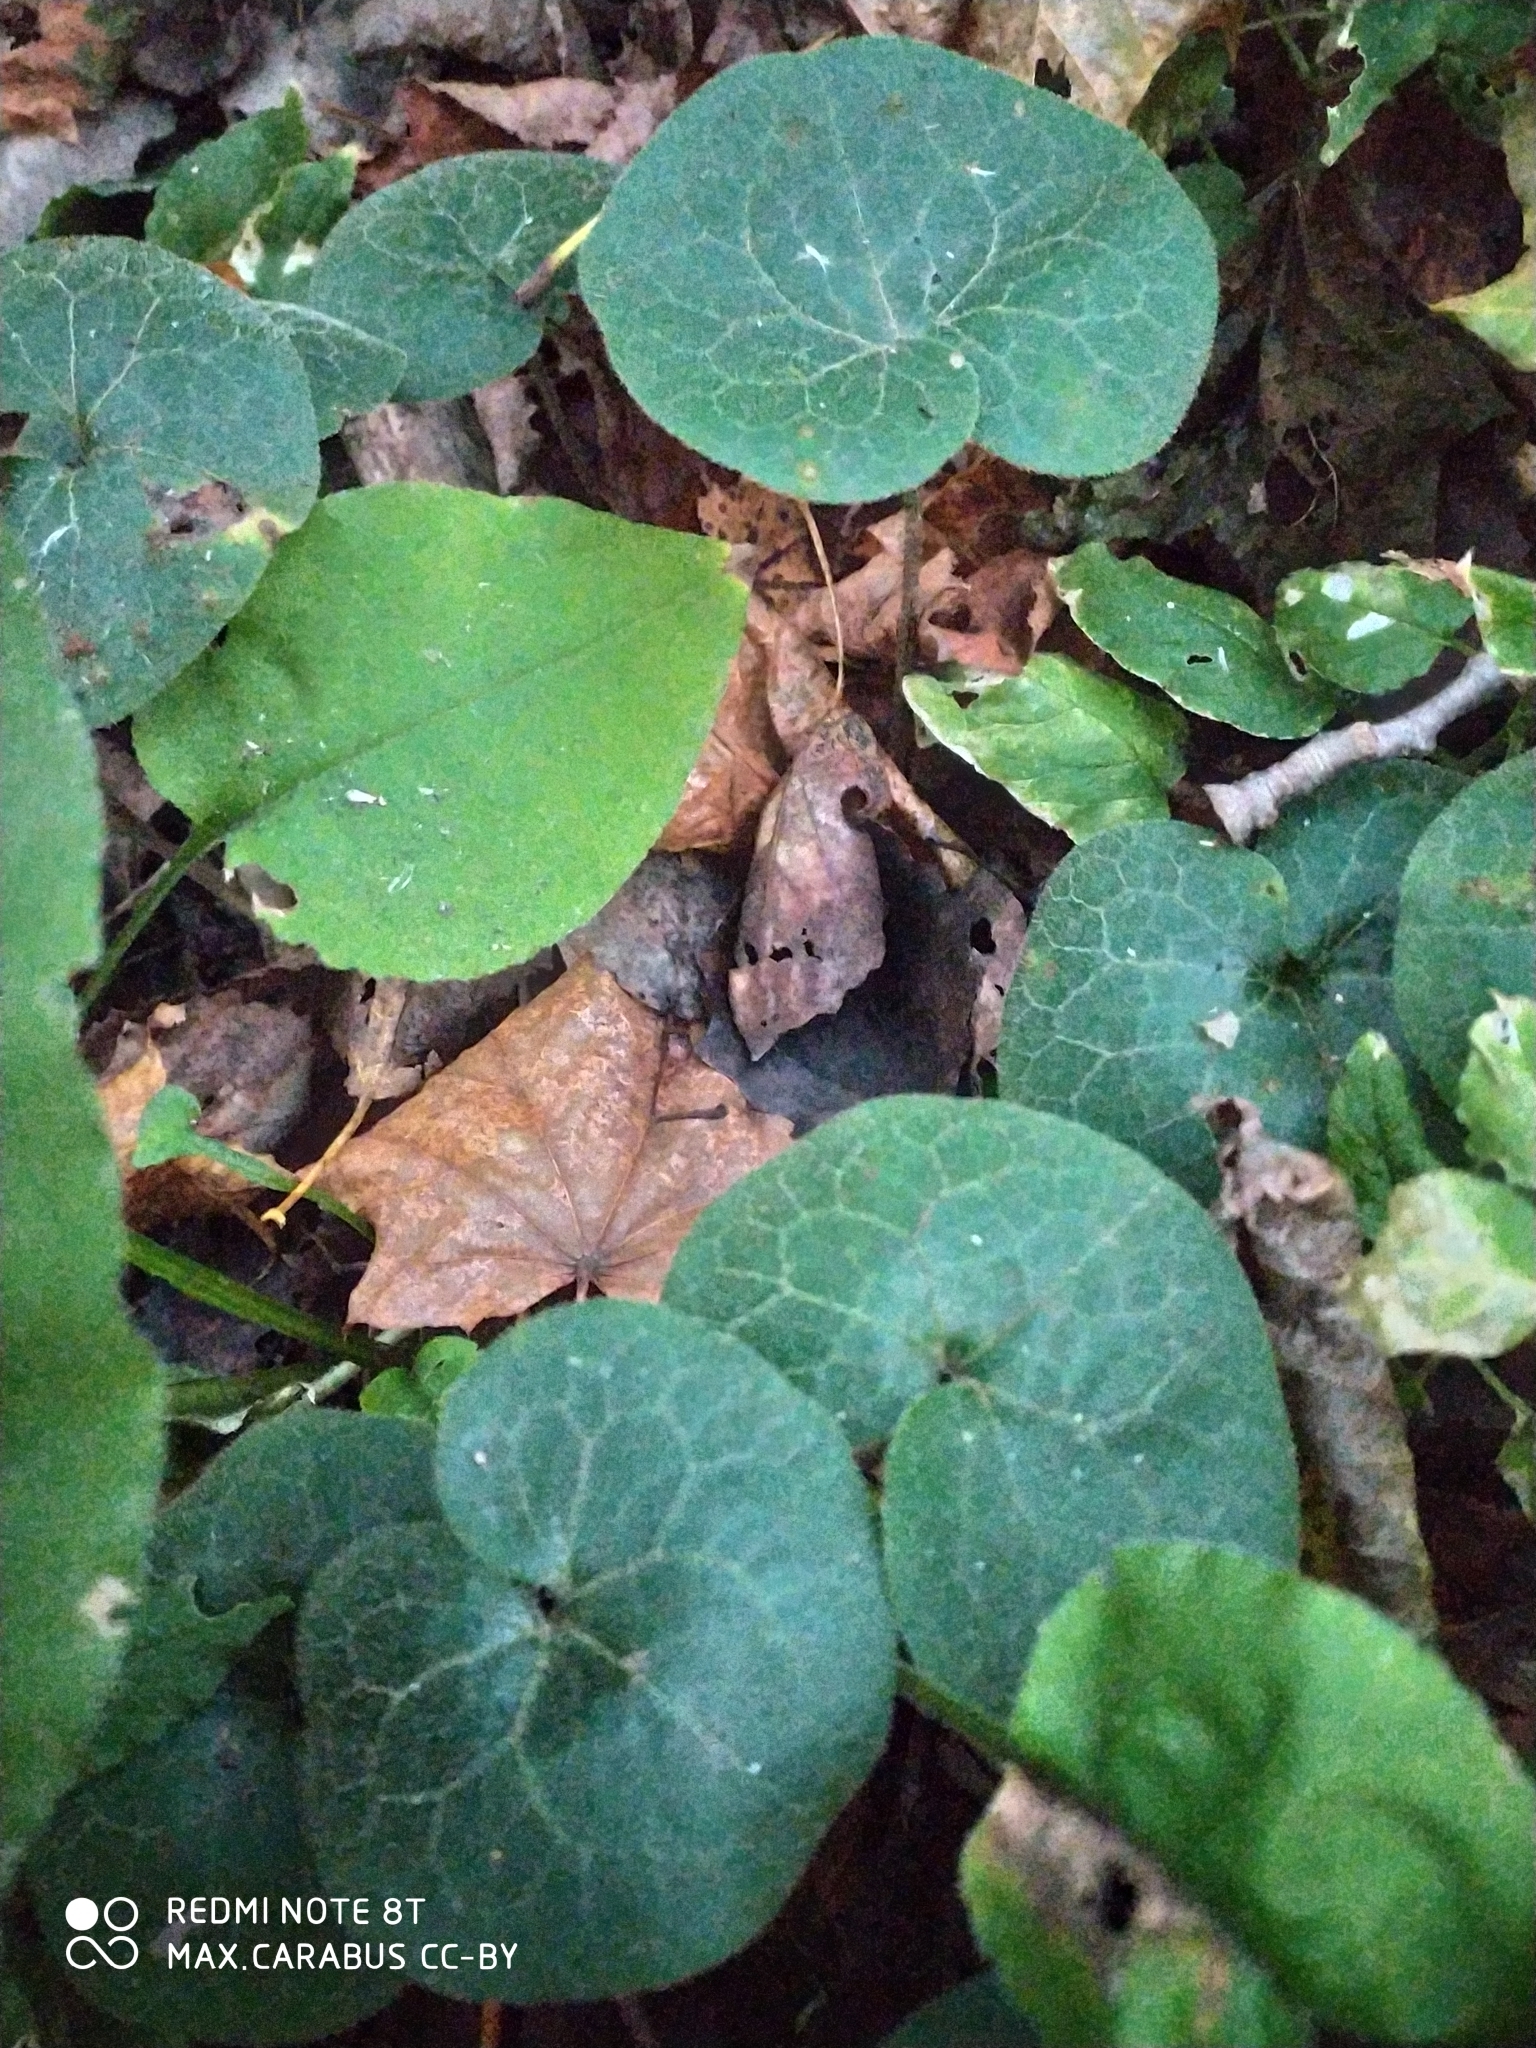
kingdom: Plantae
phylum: Tracheophyta
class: Magnoliopsida
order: Piperales
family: Aristolochiaceae
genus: Asarum
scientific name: Asarum europaeum
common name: Asarabacca
